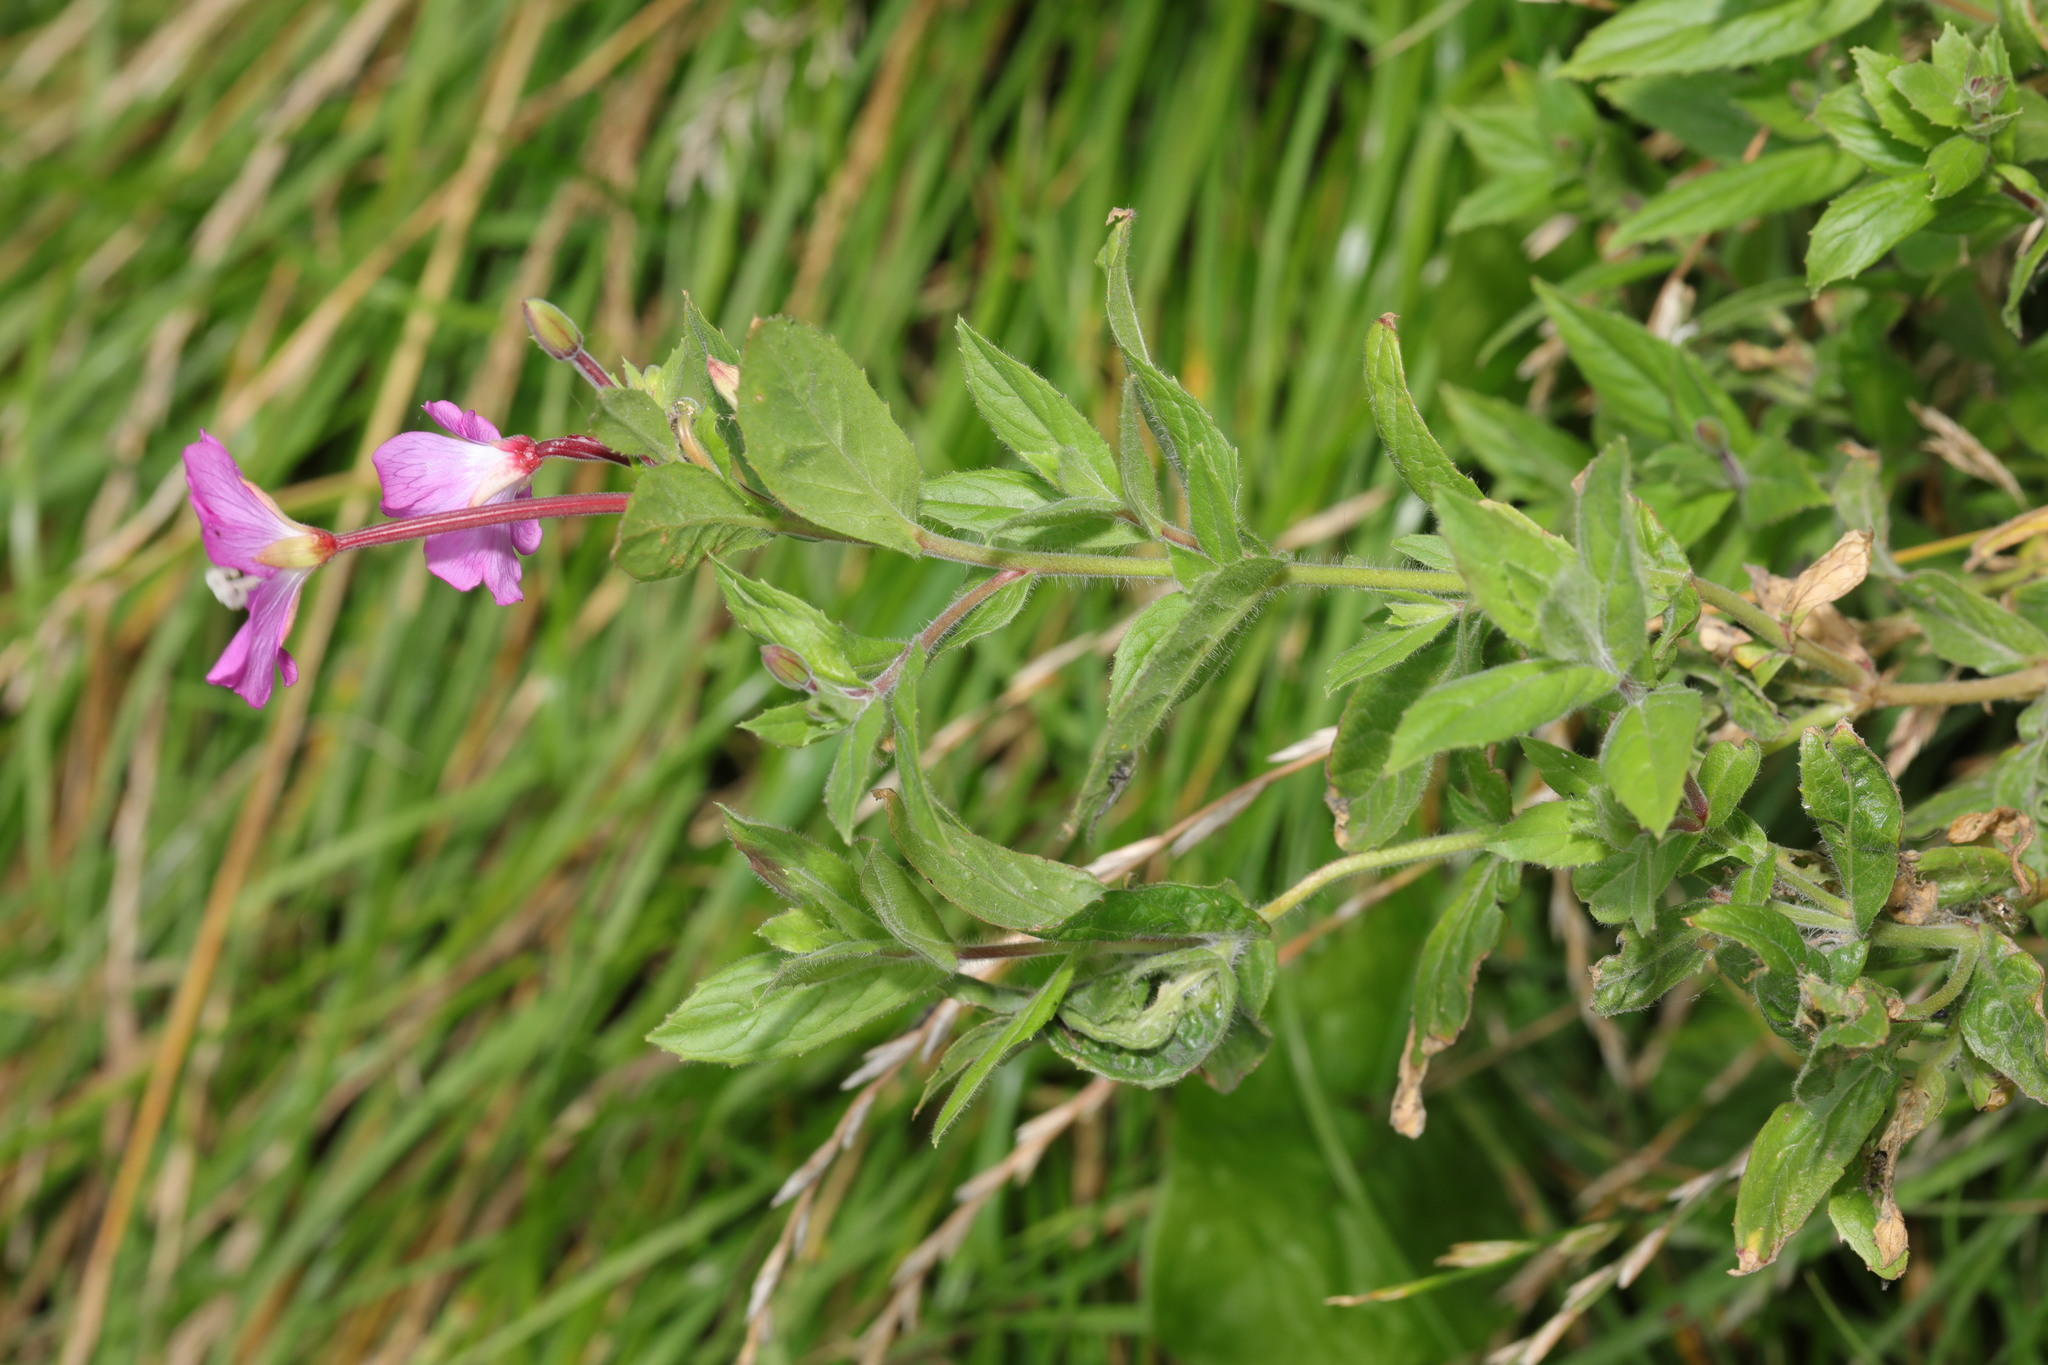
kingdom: Plantae
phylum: Tracheophyta
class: Magnoliopsida
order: Myrtales
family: Onagraceae
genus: Epilobium
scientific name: Epilobium hirsutum
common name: Great willowherb
